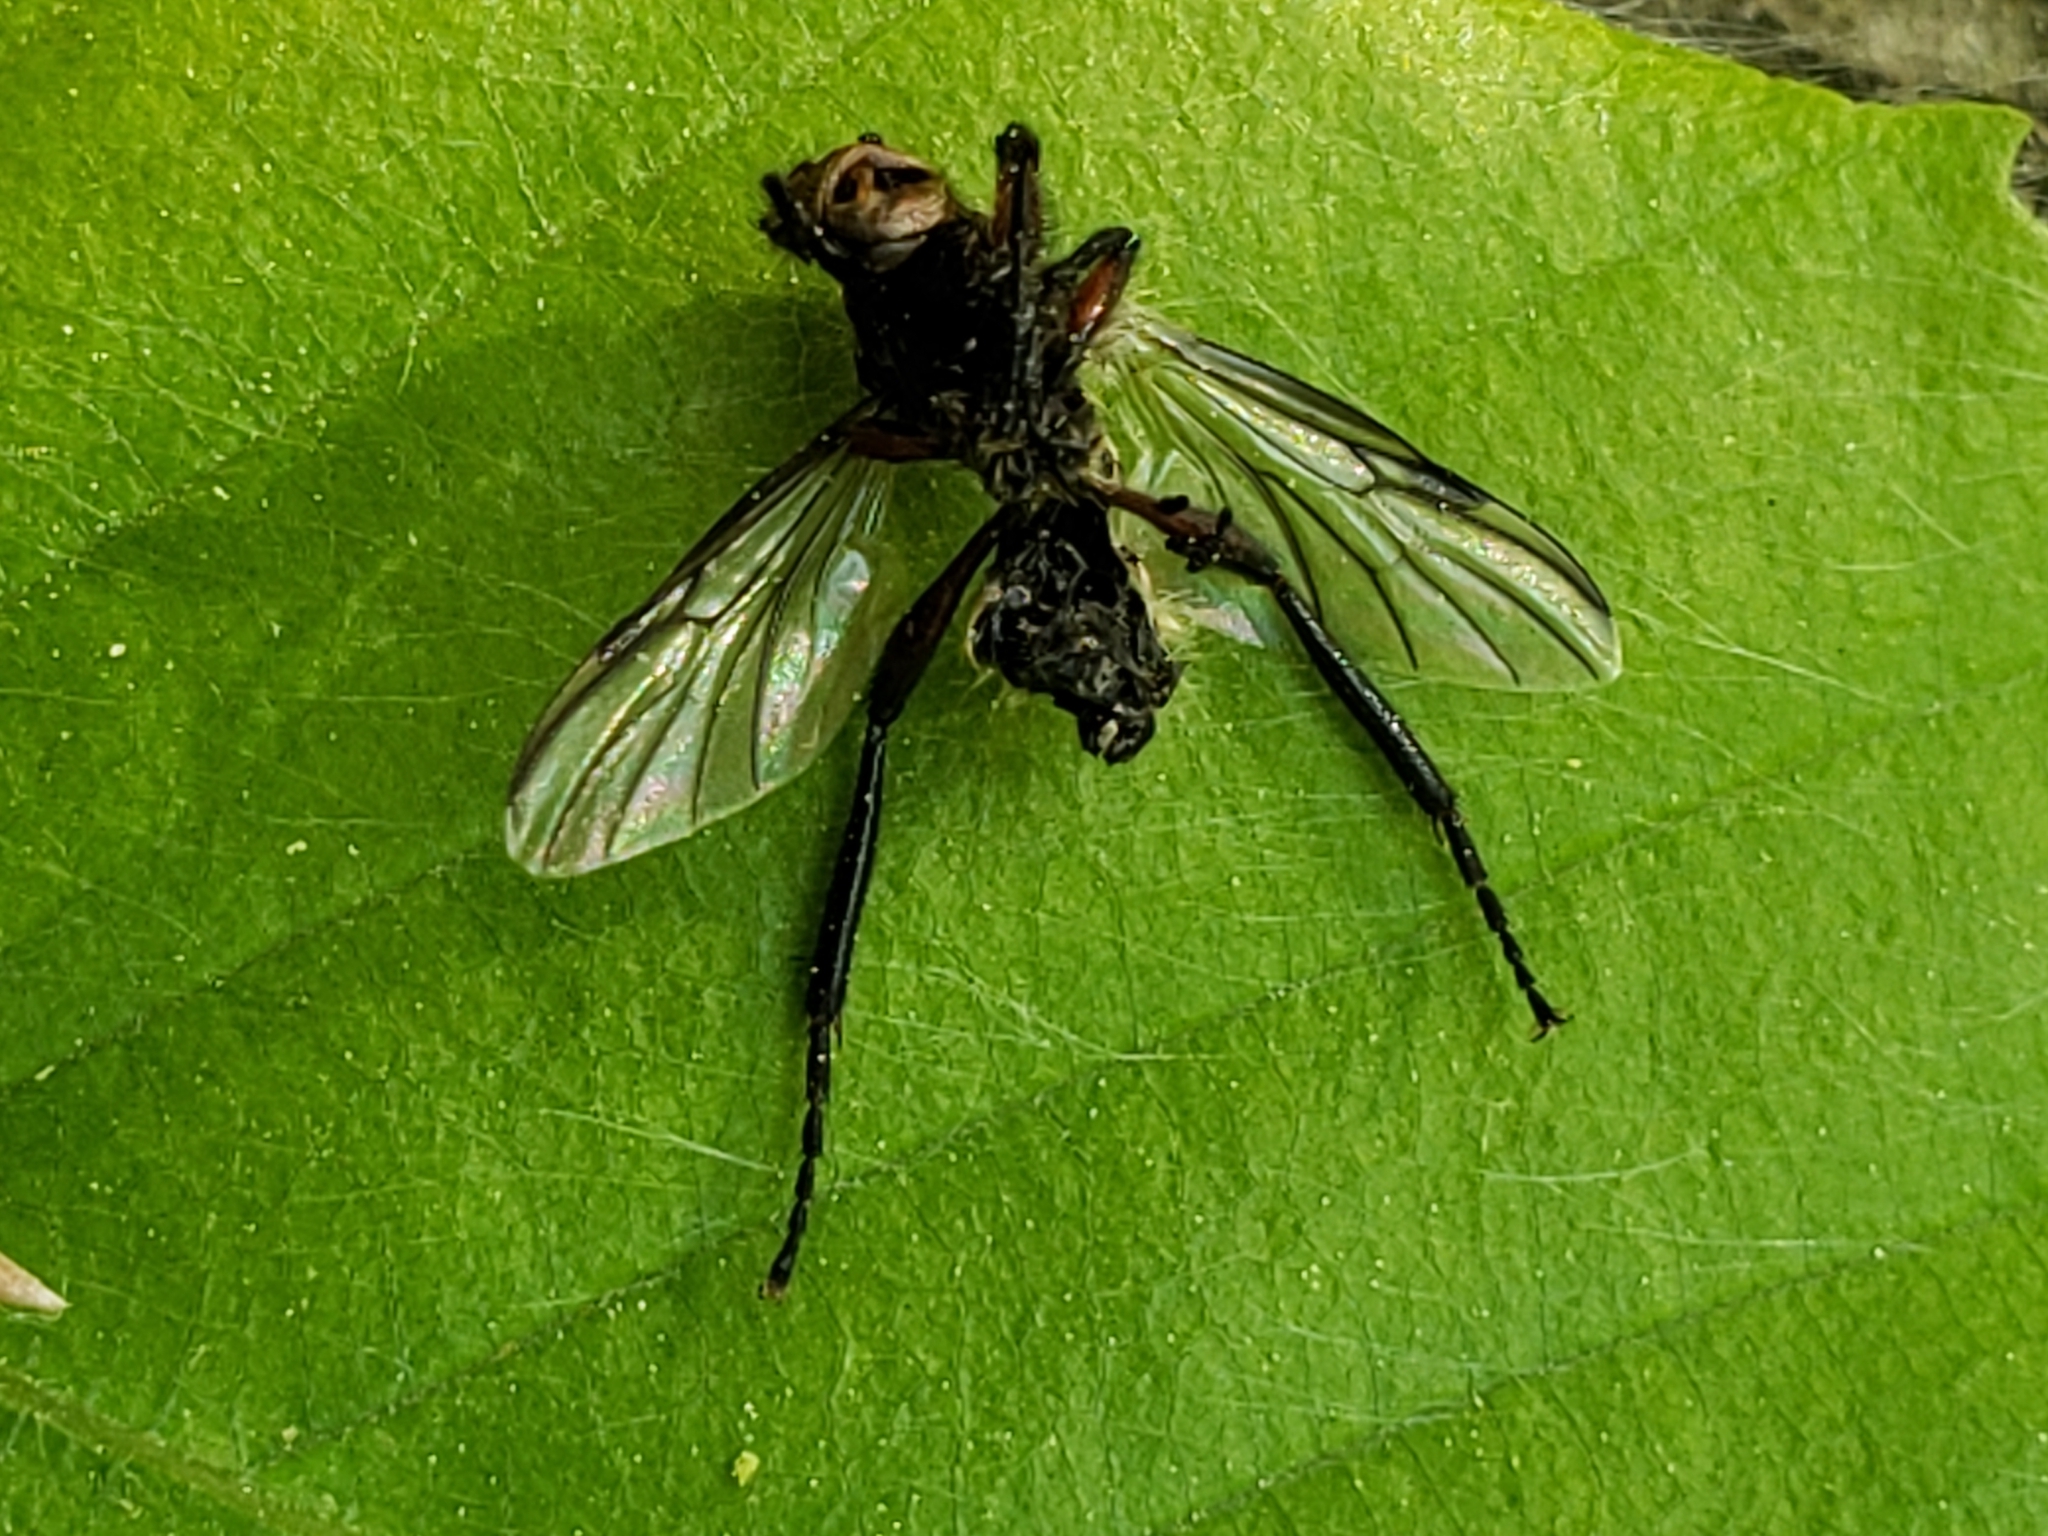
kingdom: Animalia
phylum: Arthropoda
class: Insecta
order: Diptera
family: Bibionidae
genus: Bibio
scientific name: Bibio
